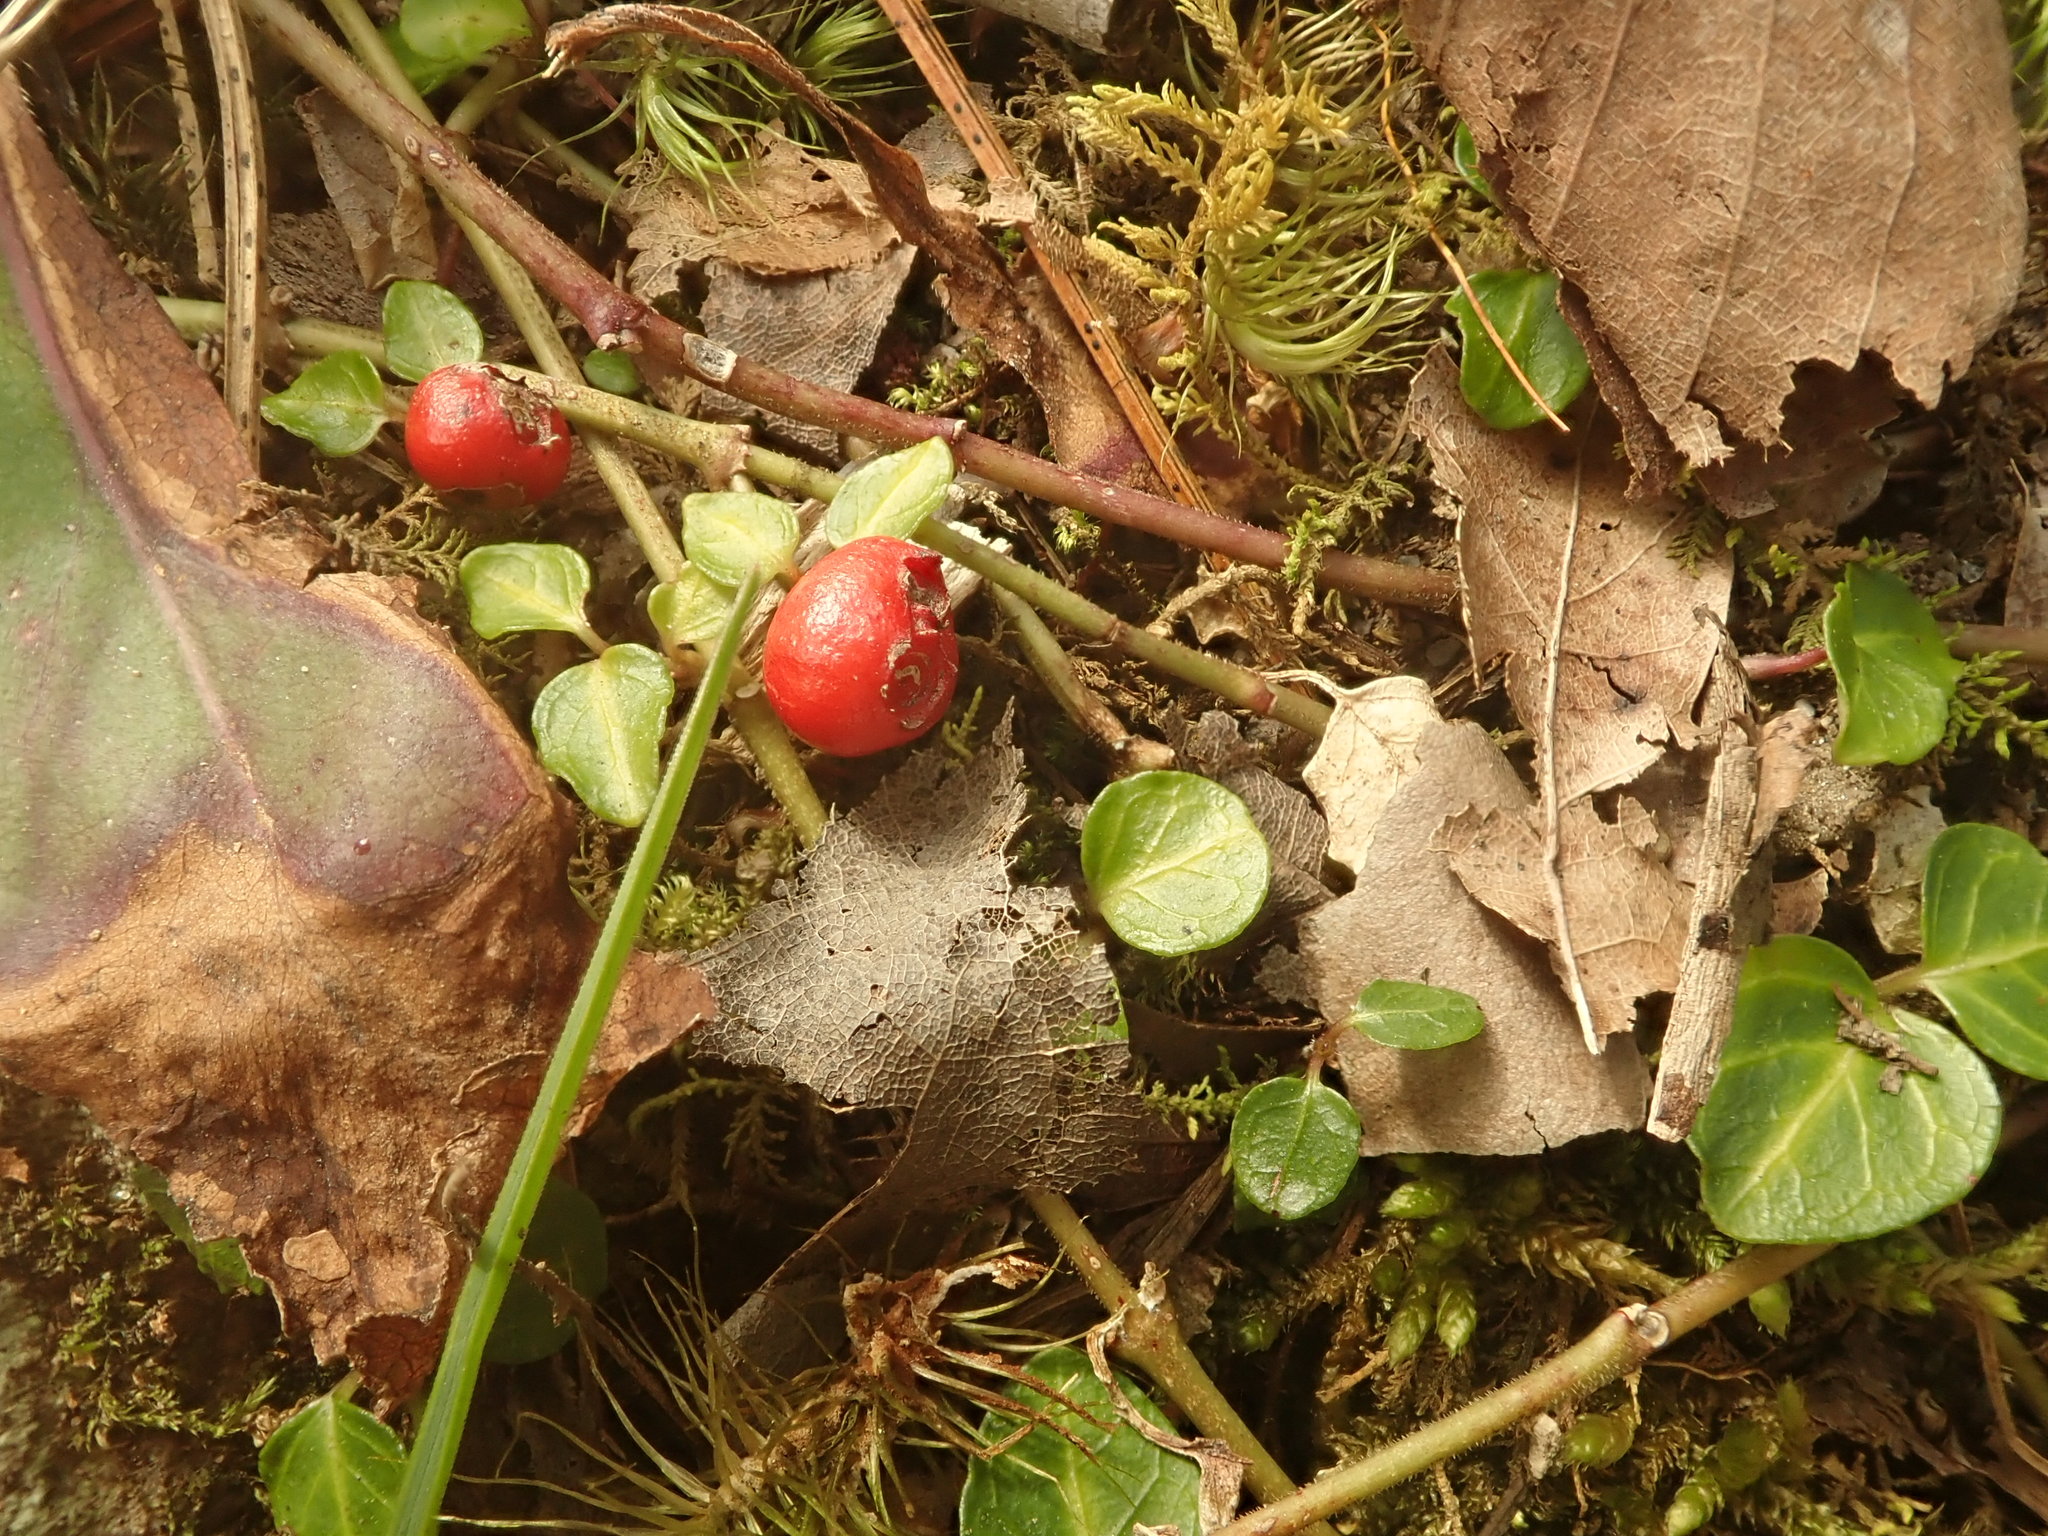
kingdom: Plantae
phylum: Tracheophyta
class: Magnoliopsida
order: Gentianales
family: Rubiaceae
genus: Mitchella
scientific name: Mitchella repens
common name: Partridge-berry
